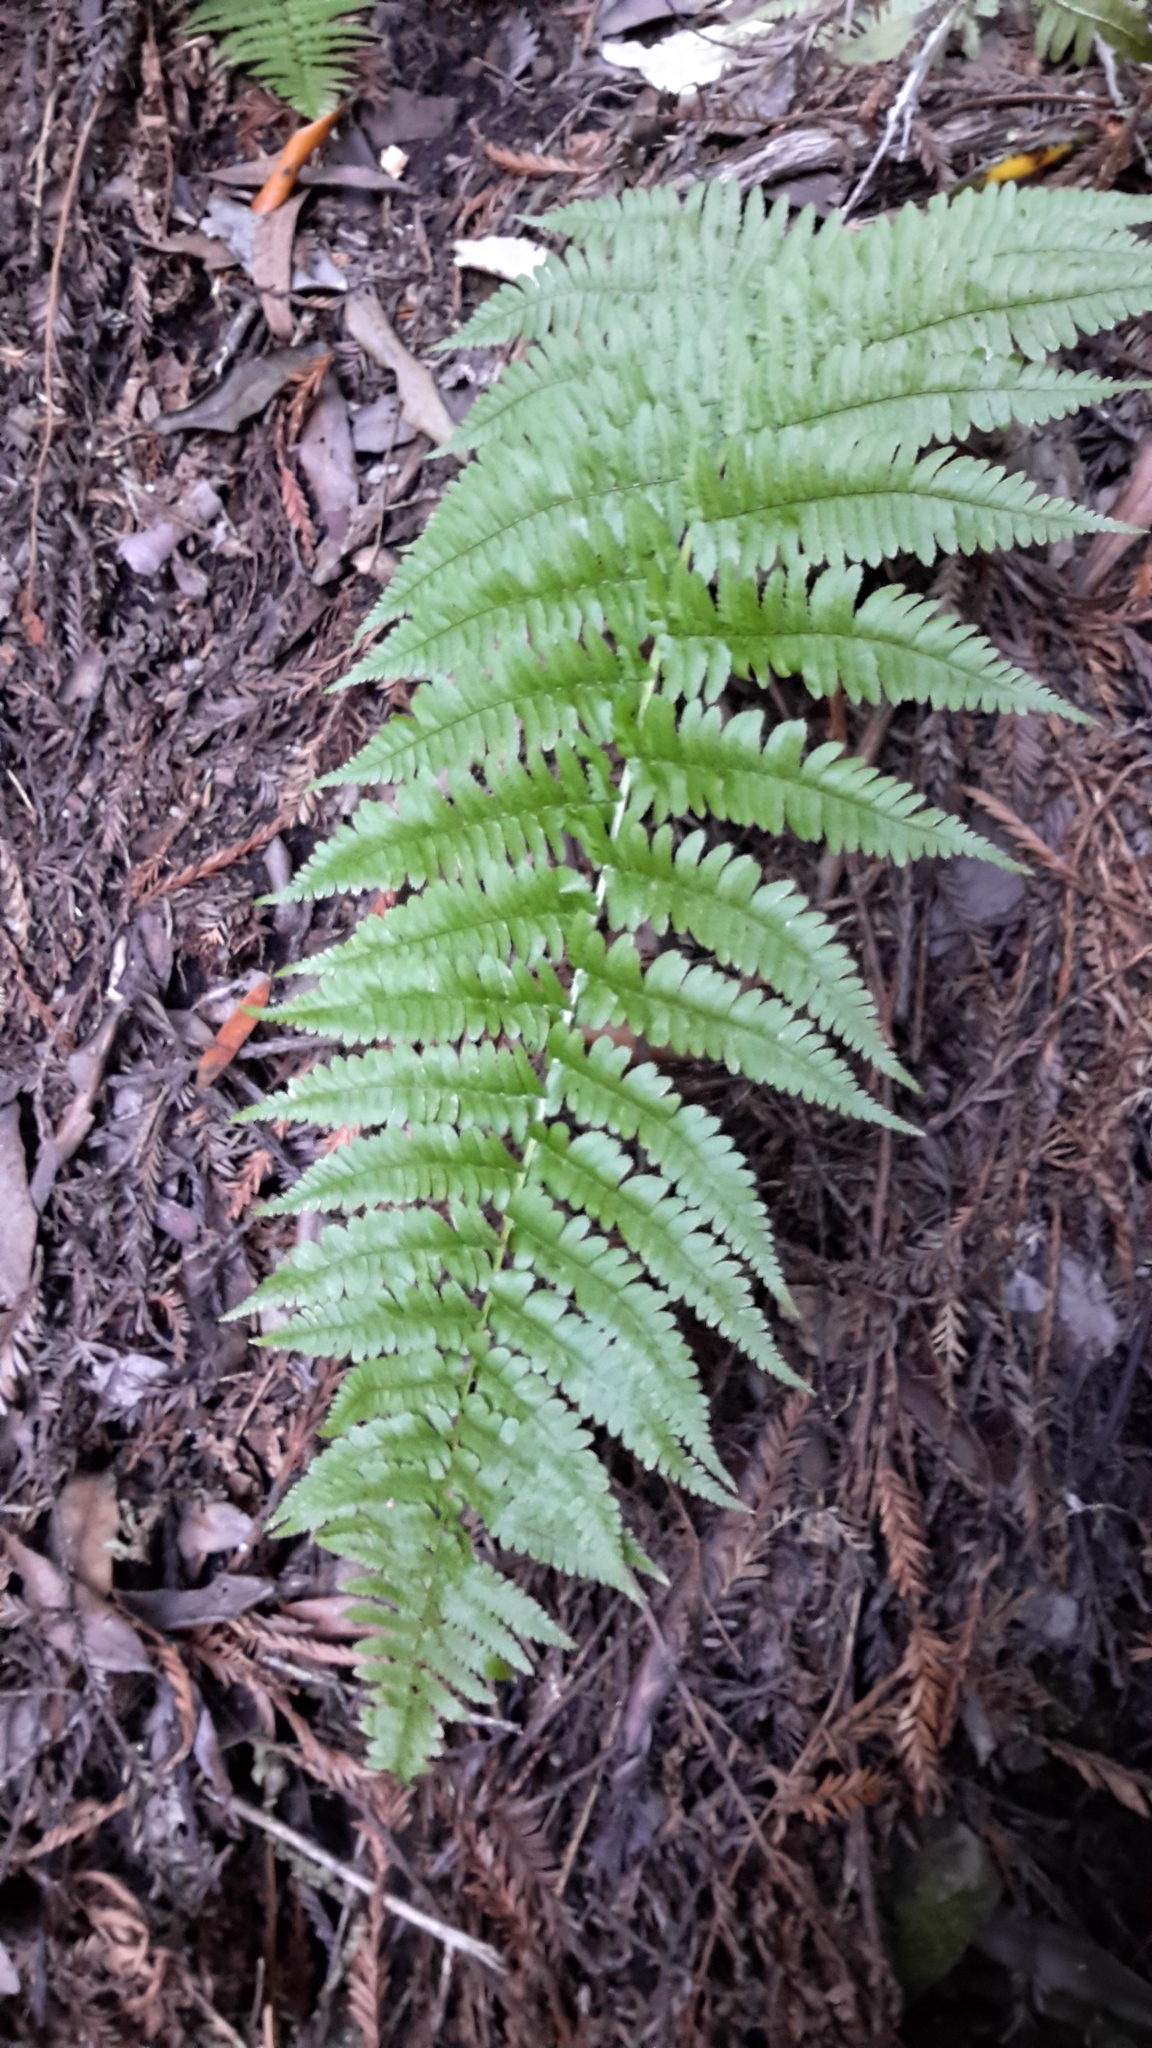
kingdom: Plantae
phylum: Tracheophyta
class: Polypodiopsida
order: Polypodiales
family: Dryopteridaceae
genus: Dryopteris
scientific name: Dryopteris arguta
